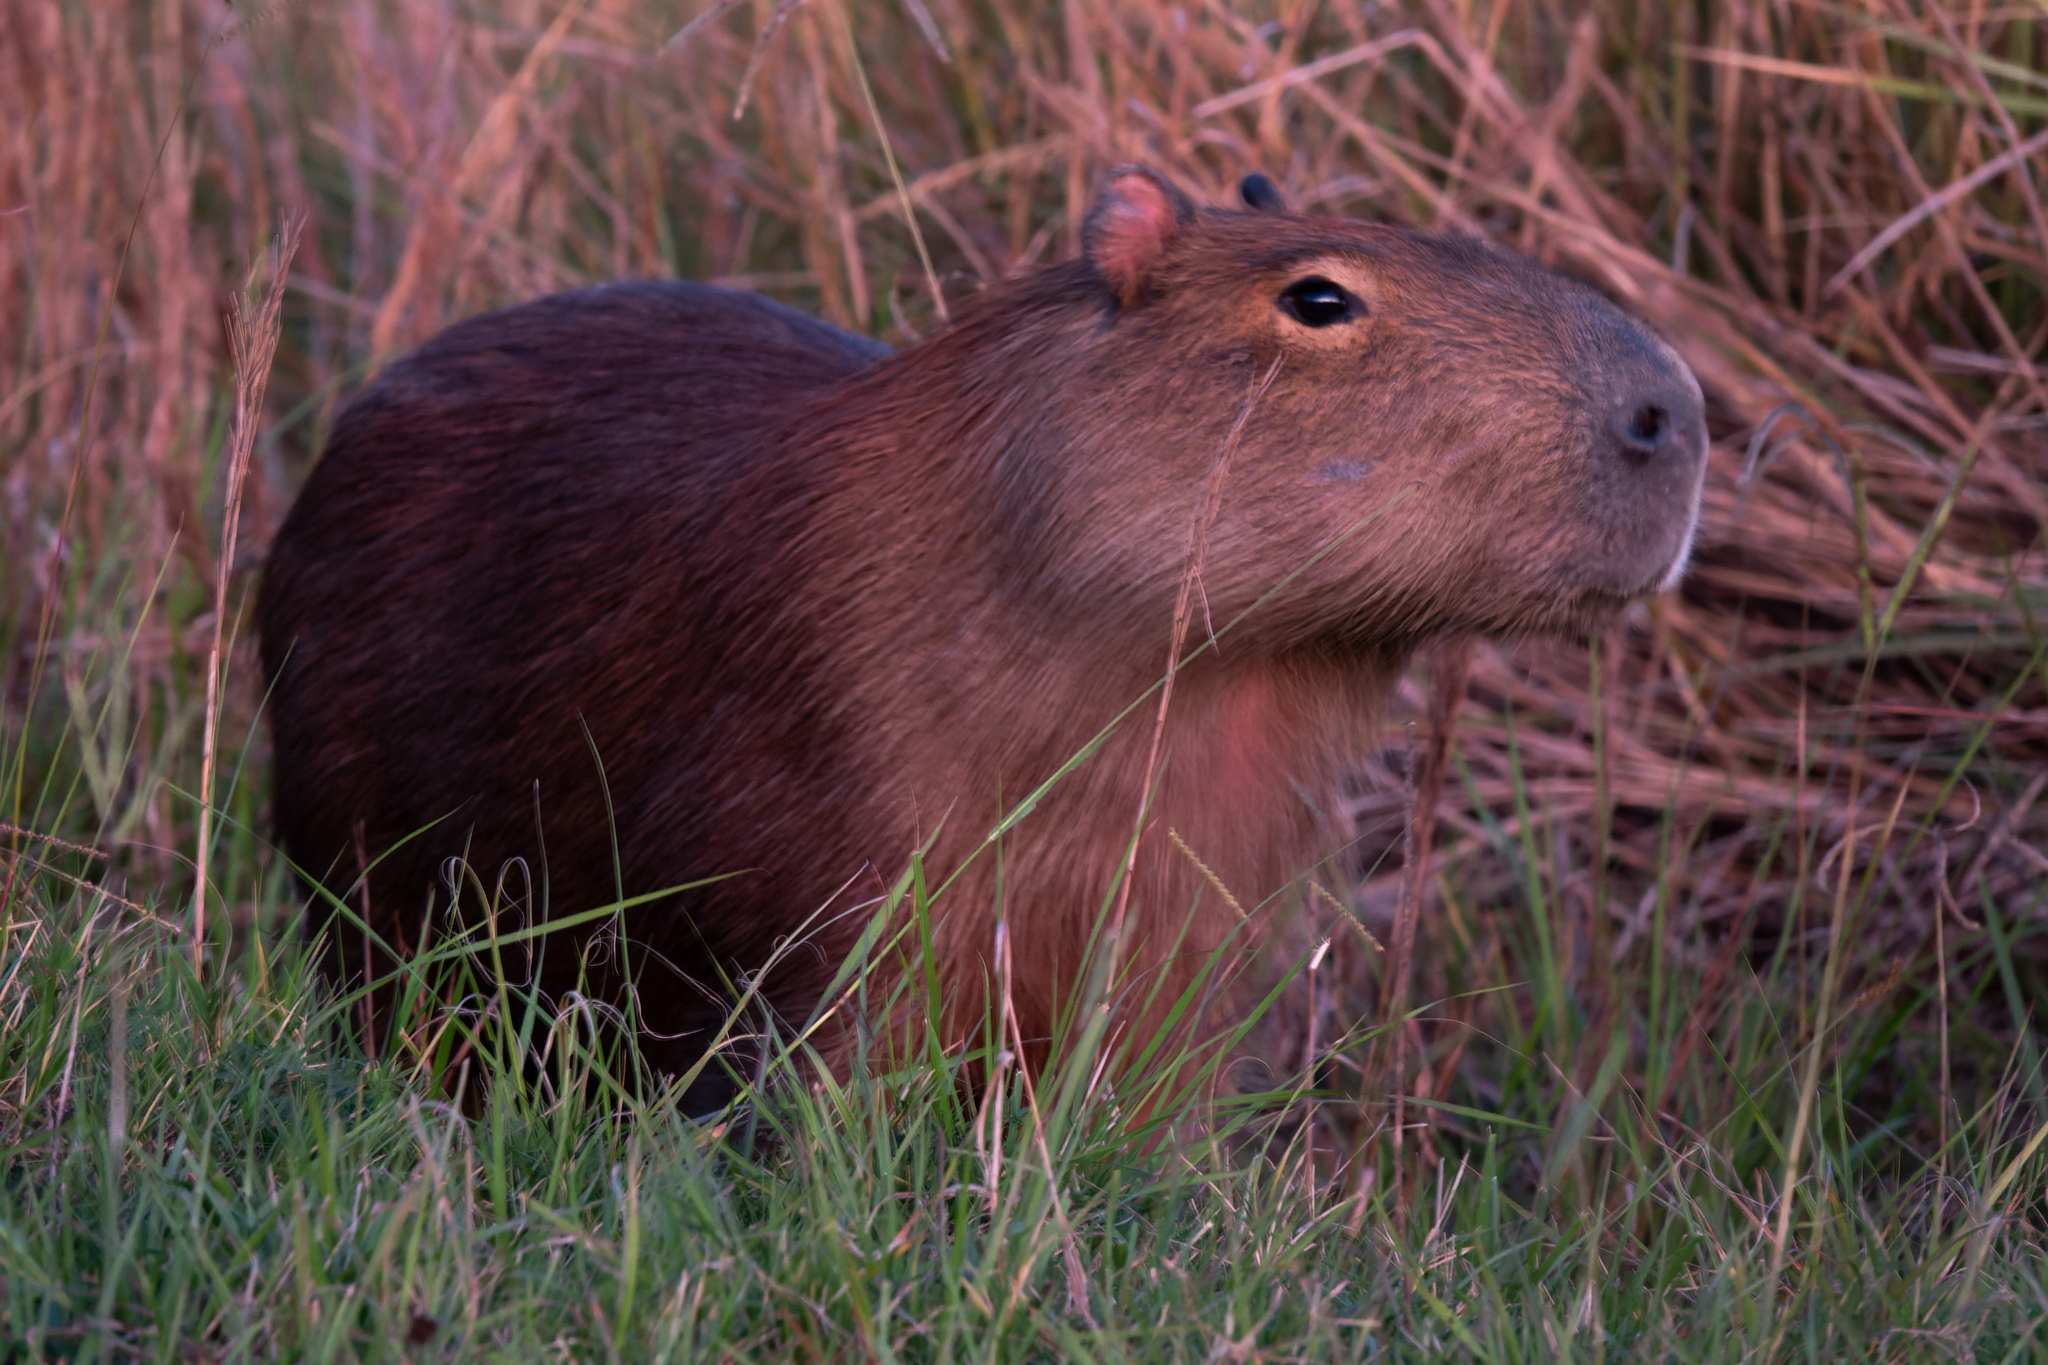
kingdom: Animalia
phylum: Chordata
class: Mammalia
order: Rodentia
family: Caviidae
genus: Hydrochoerus
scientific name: Hydrochoerus hydrochaeris
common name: Capybara
